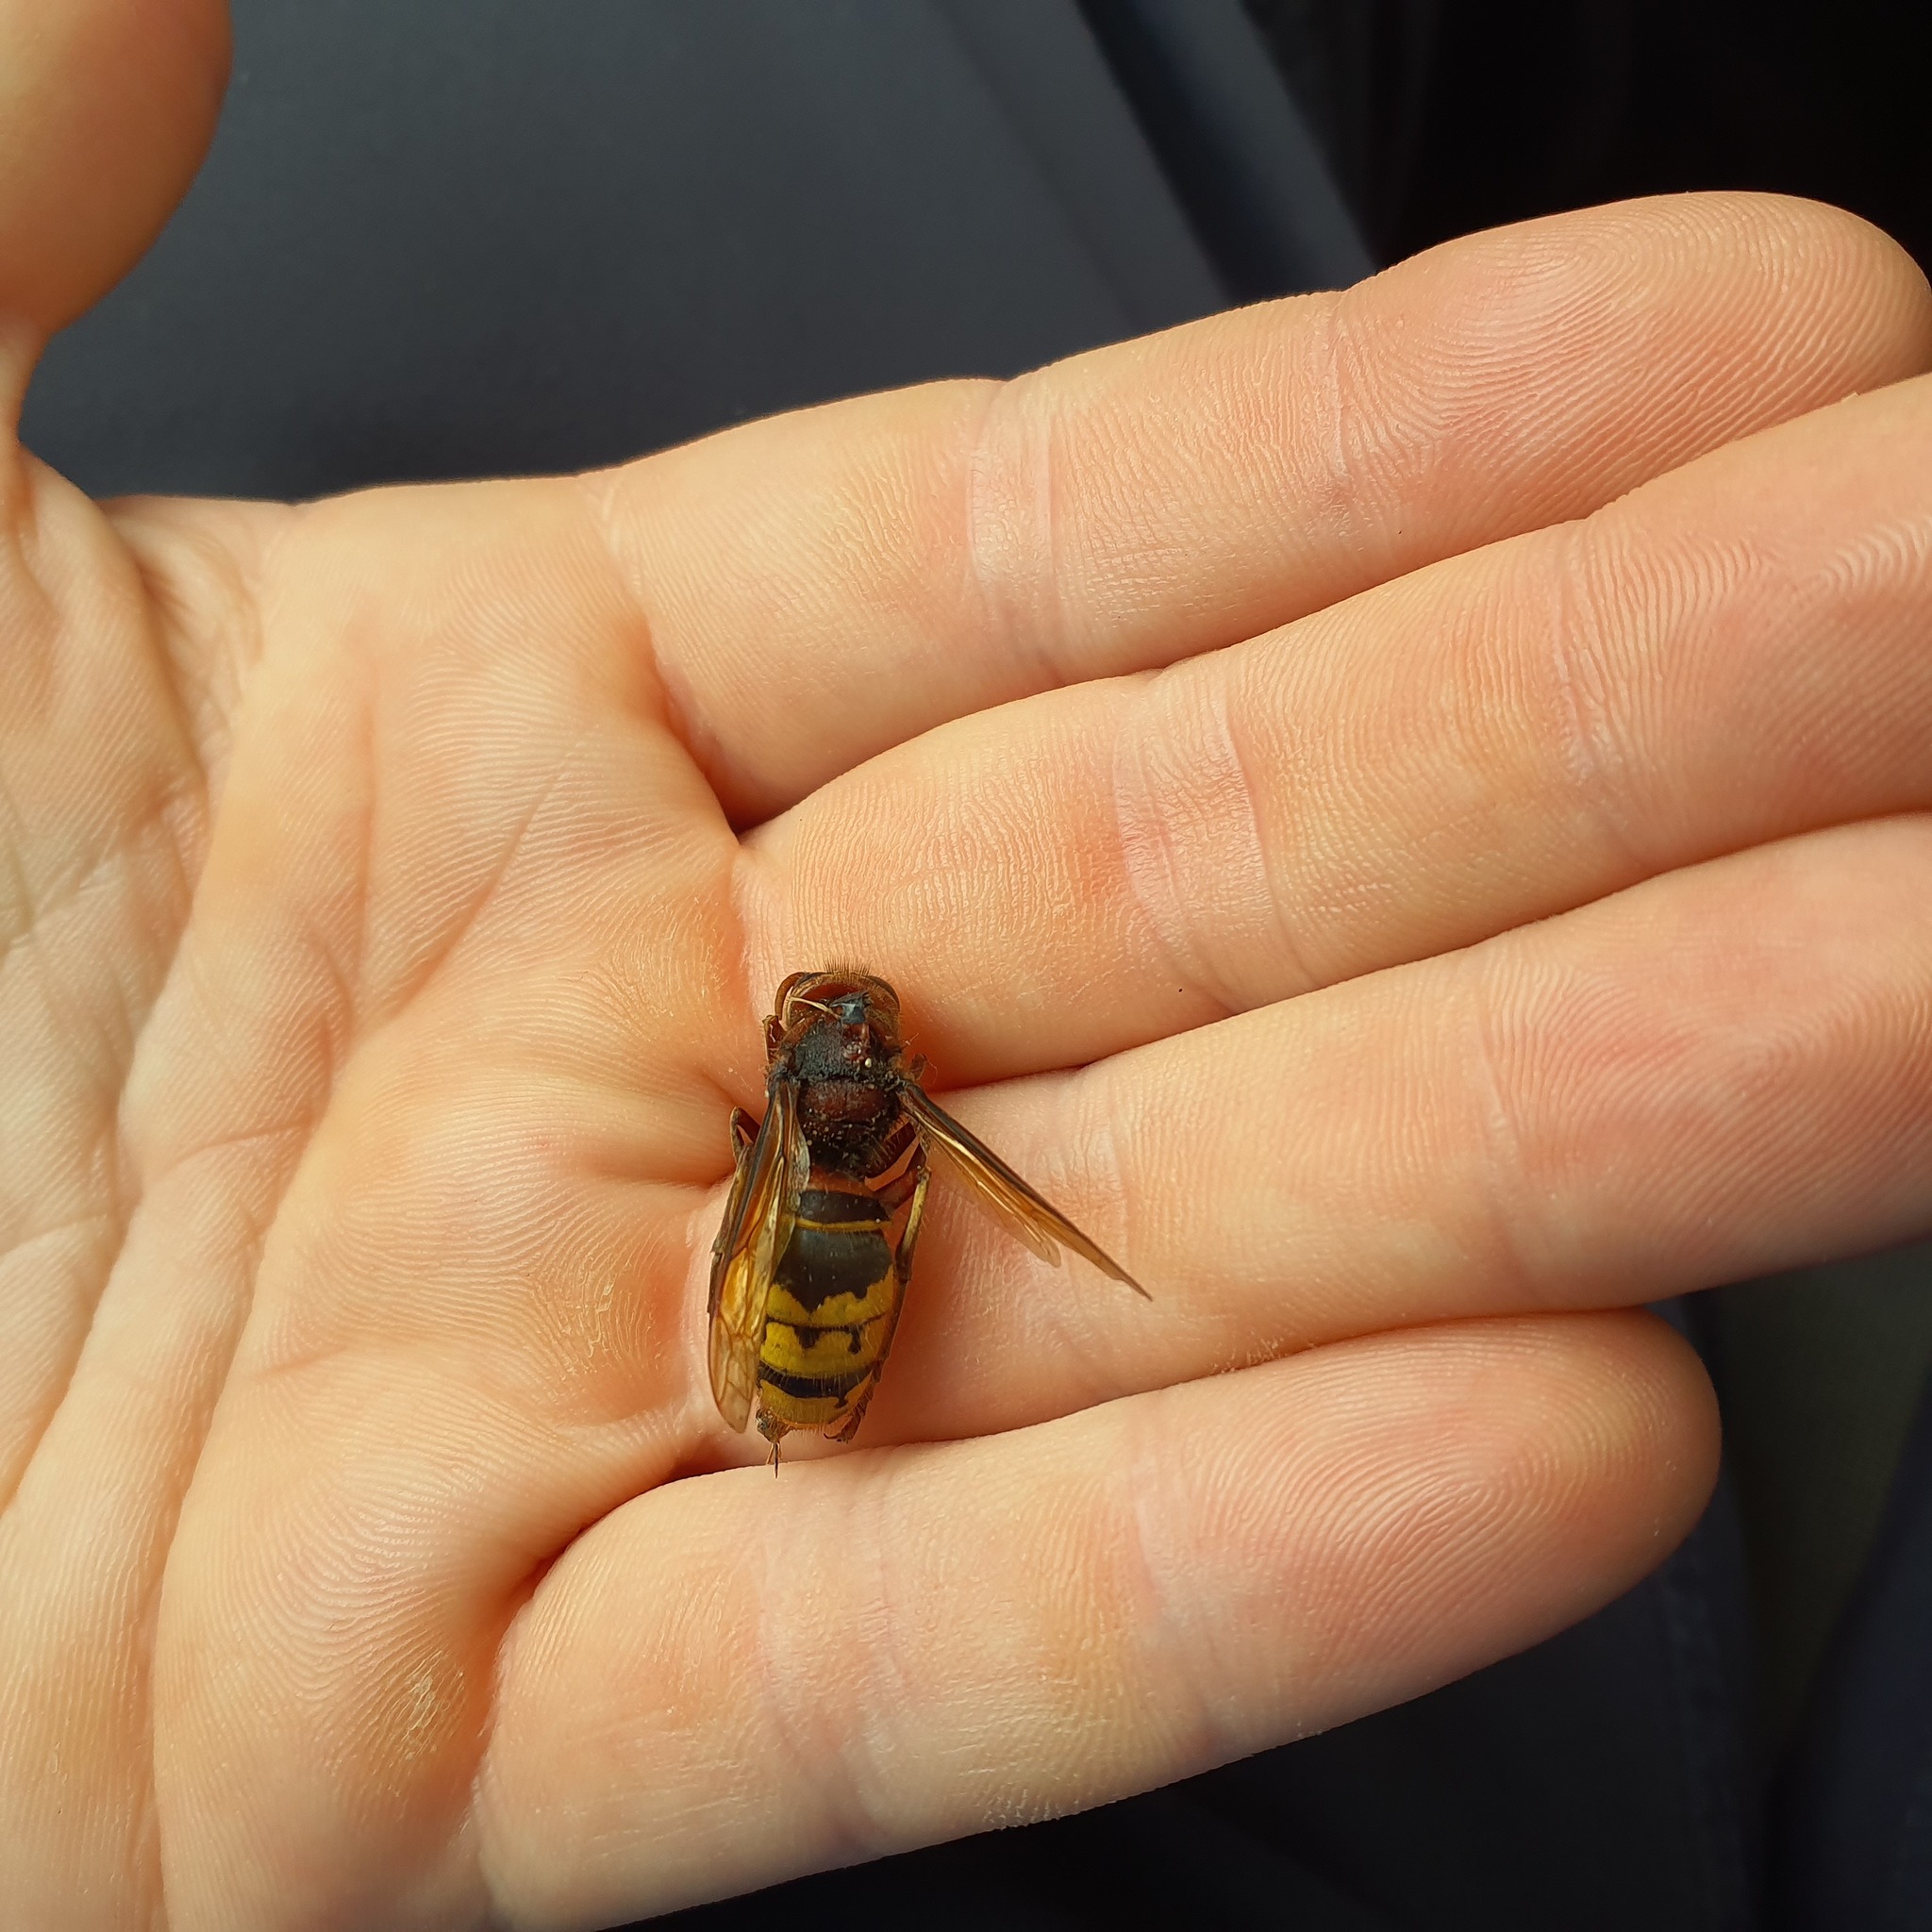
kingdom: Animalia
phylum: Arthropoda
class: Insecta
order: Hymenoptera
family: Vespidae
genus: Vespa
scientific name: Vespa crabro
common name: Hornet
